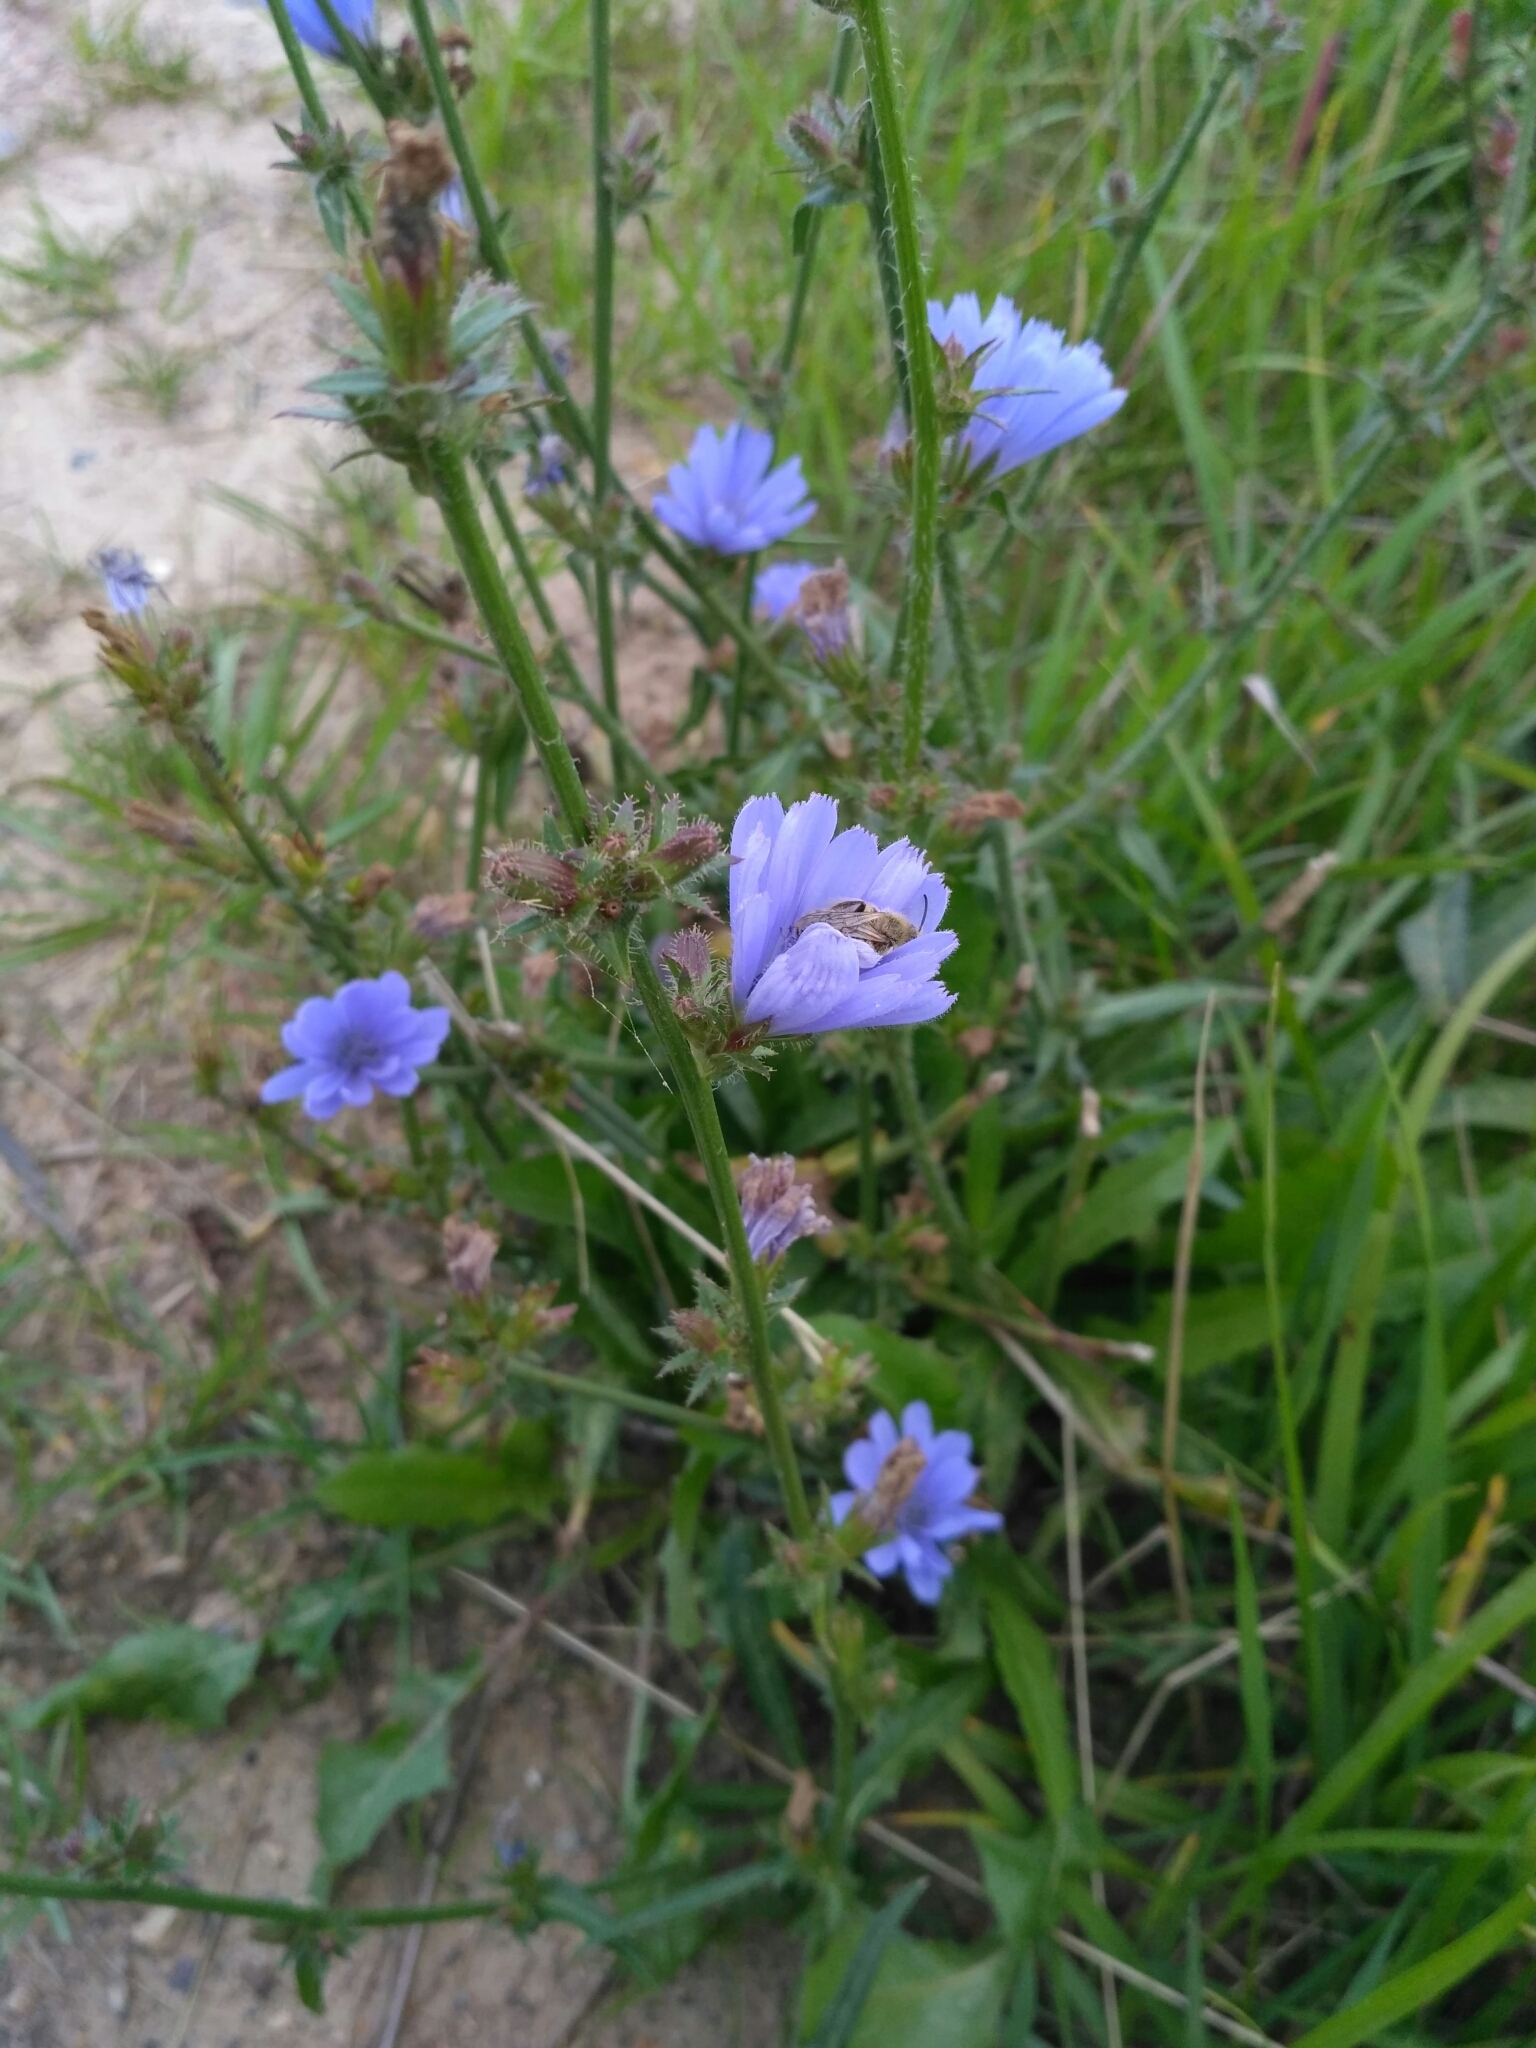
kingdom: Plantae
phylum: Tracheophyta
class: Magnoliopsida
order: Asterales
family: Asteraceae
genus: Cichorium
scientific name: Cichorium intybus
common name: Chicory
